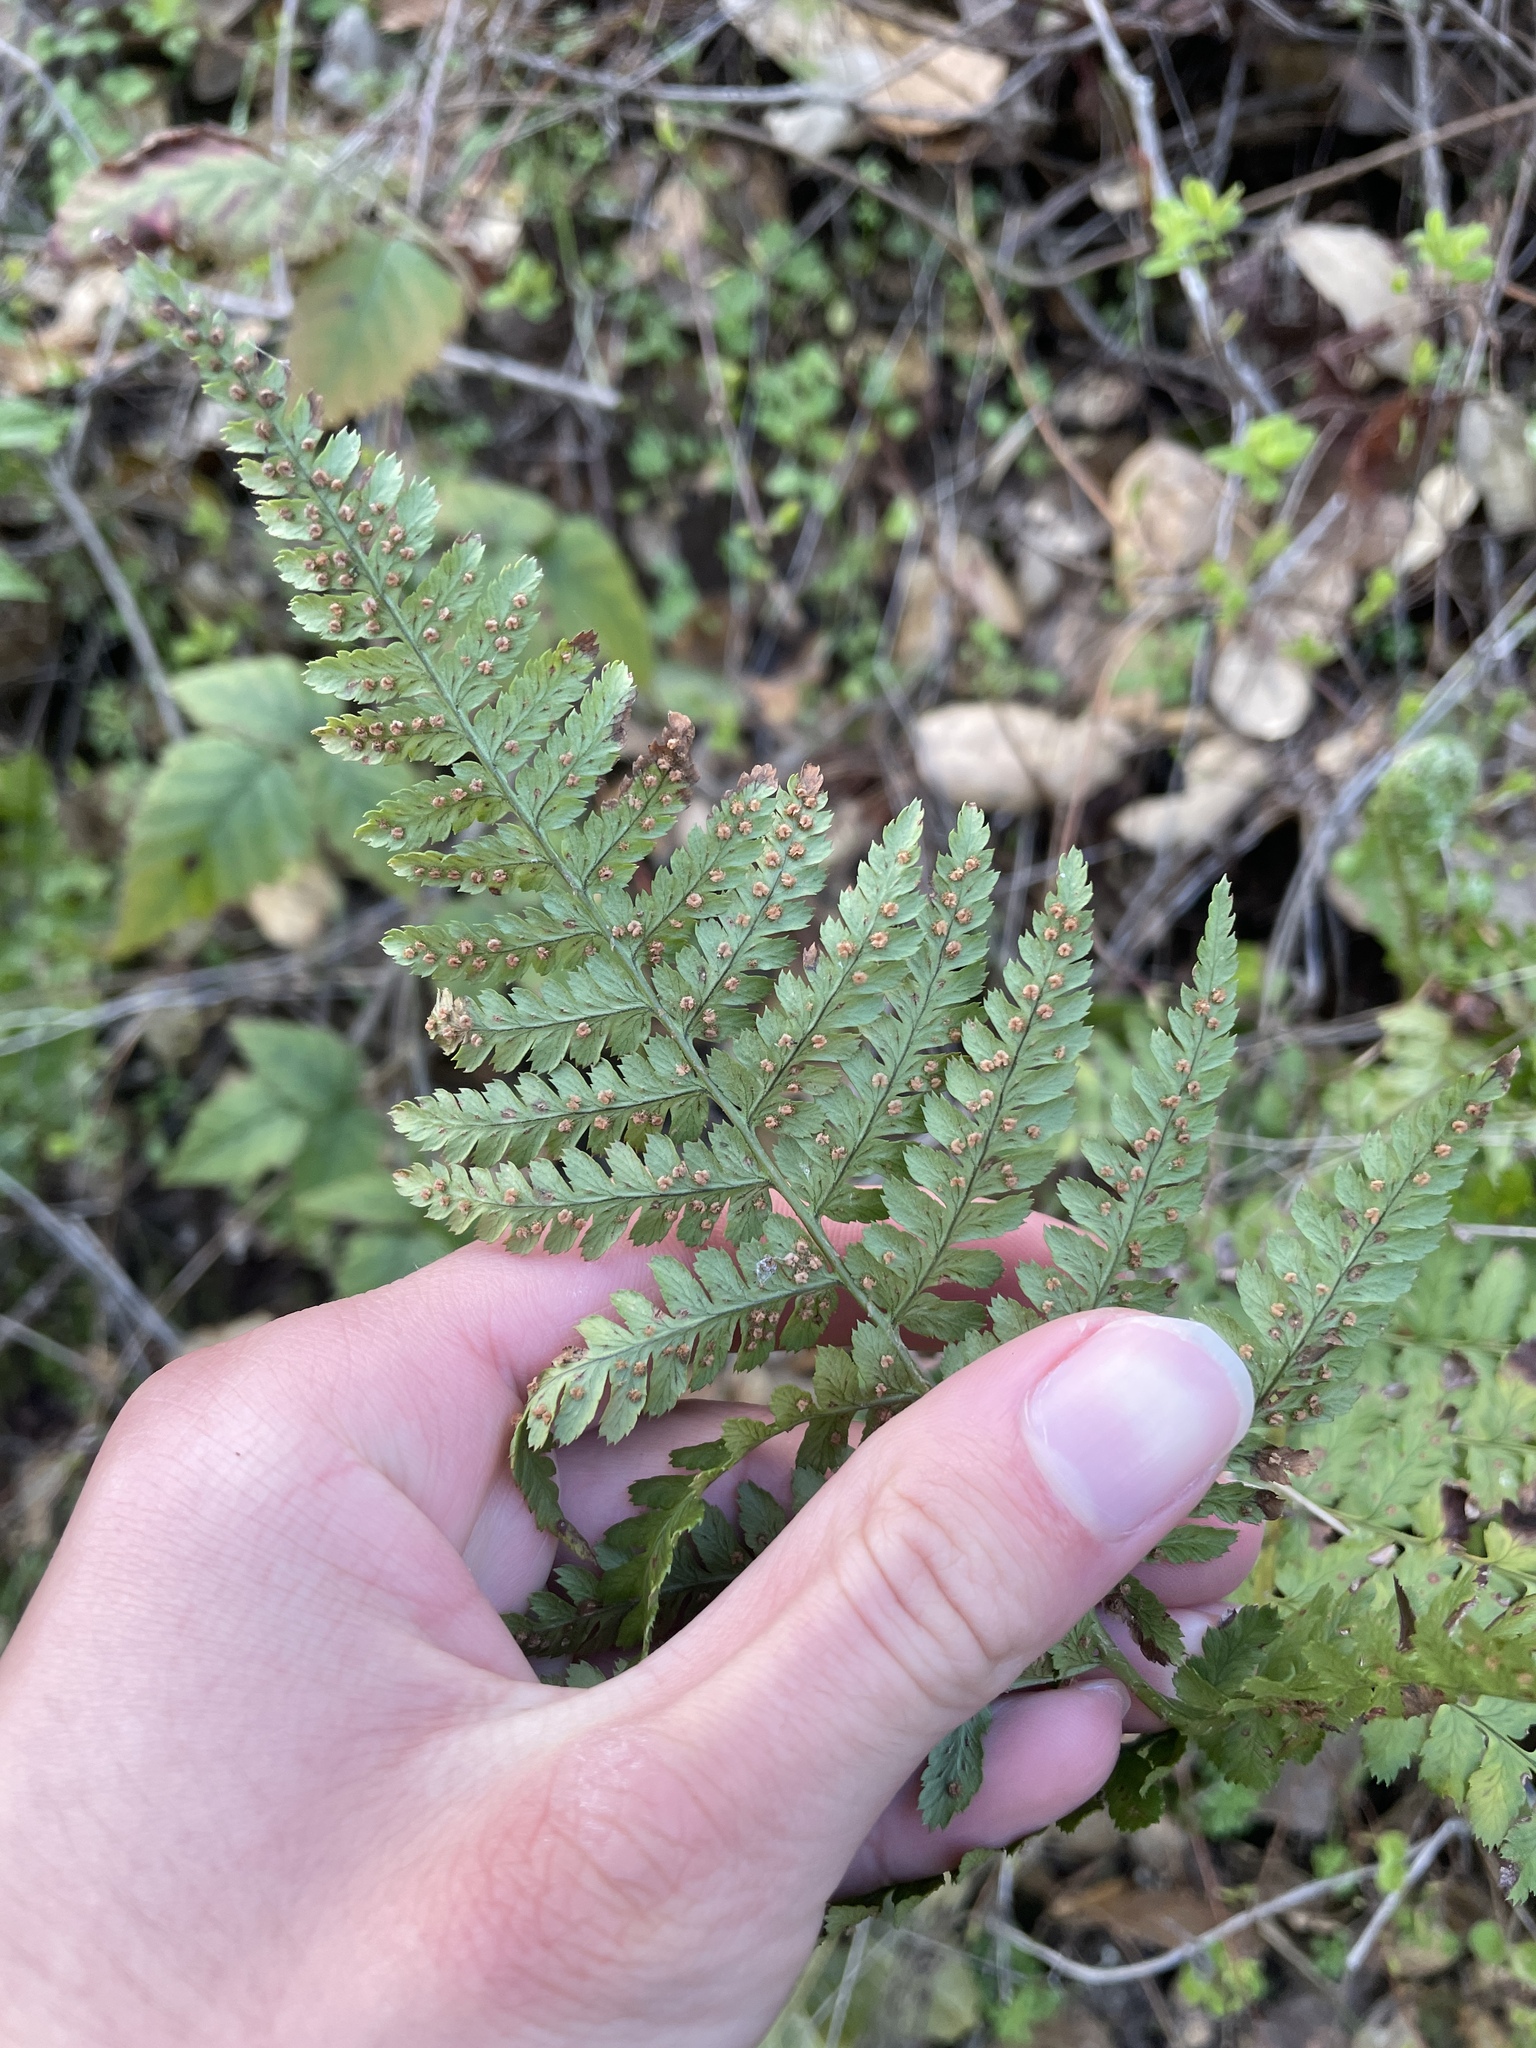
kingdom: Plantae
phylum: Tracheophyta
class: Polypodiopsida
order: Polypodiales
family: Dryopteridaceae
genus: Dryopteris
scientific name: Dryopteris arguta
